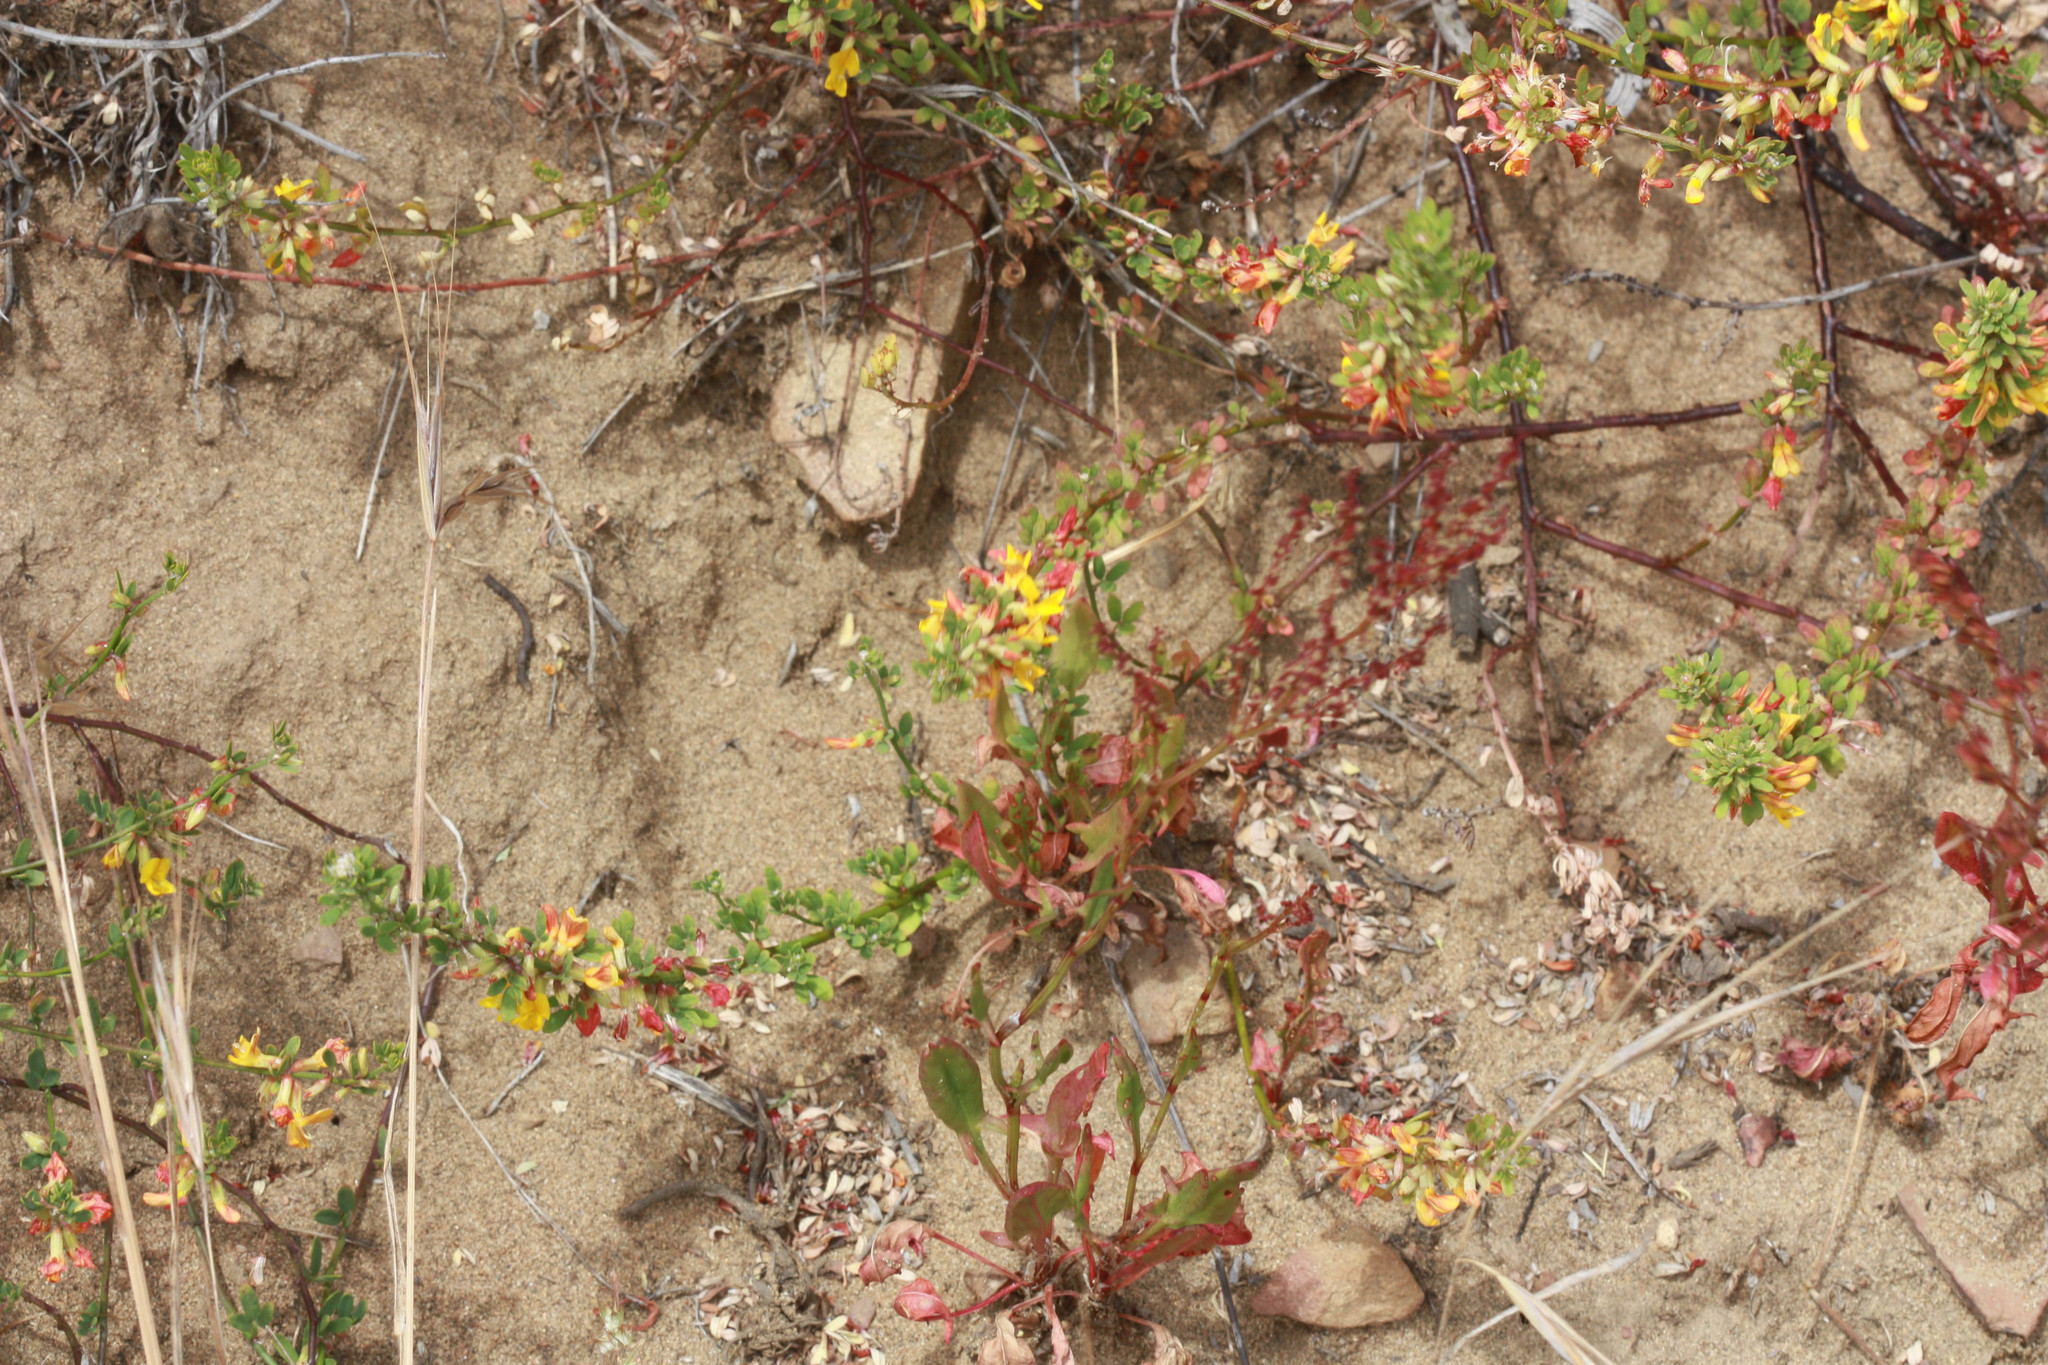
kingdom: Plantae
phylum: Tracheophyta
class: Magnoliopsida
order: Fabales
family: Fabaceae
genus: Acmispon
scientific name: Acmispon glaber
